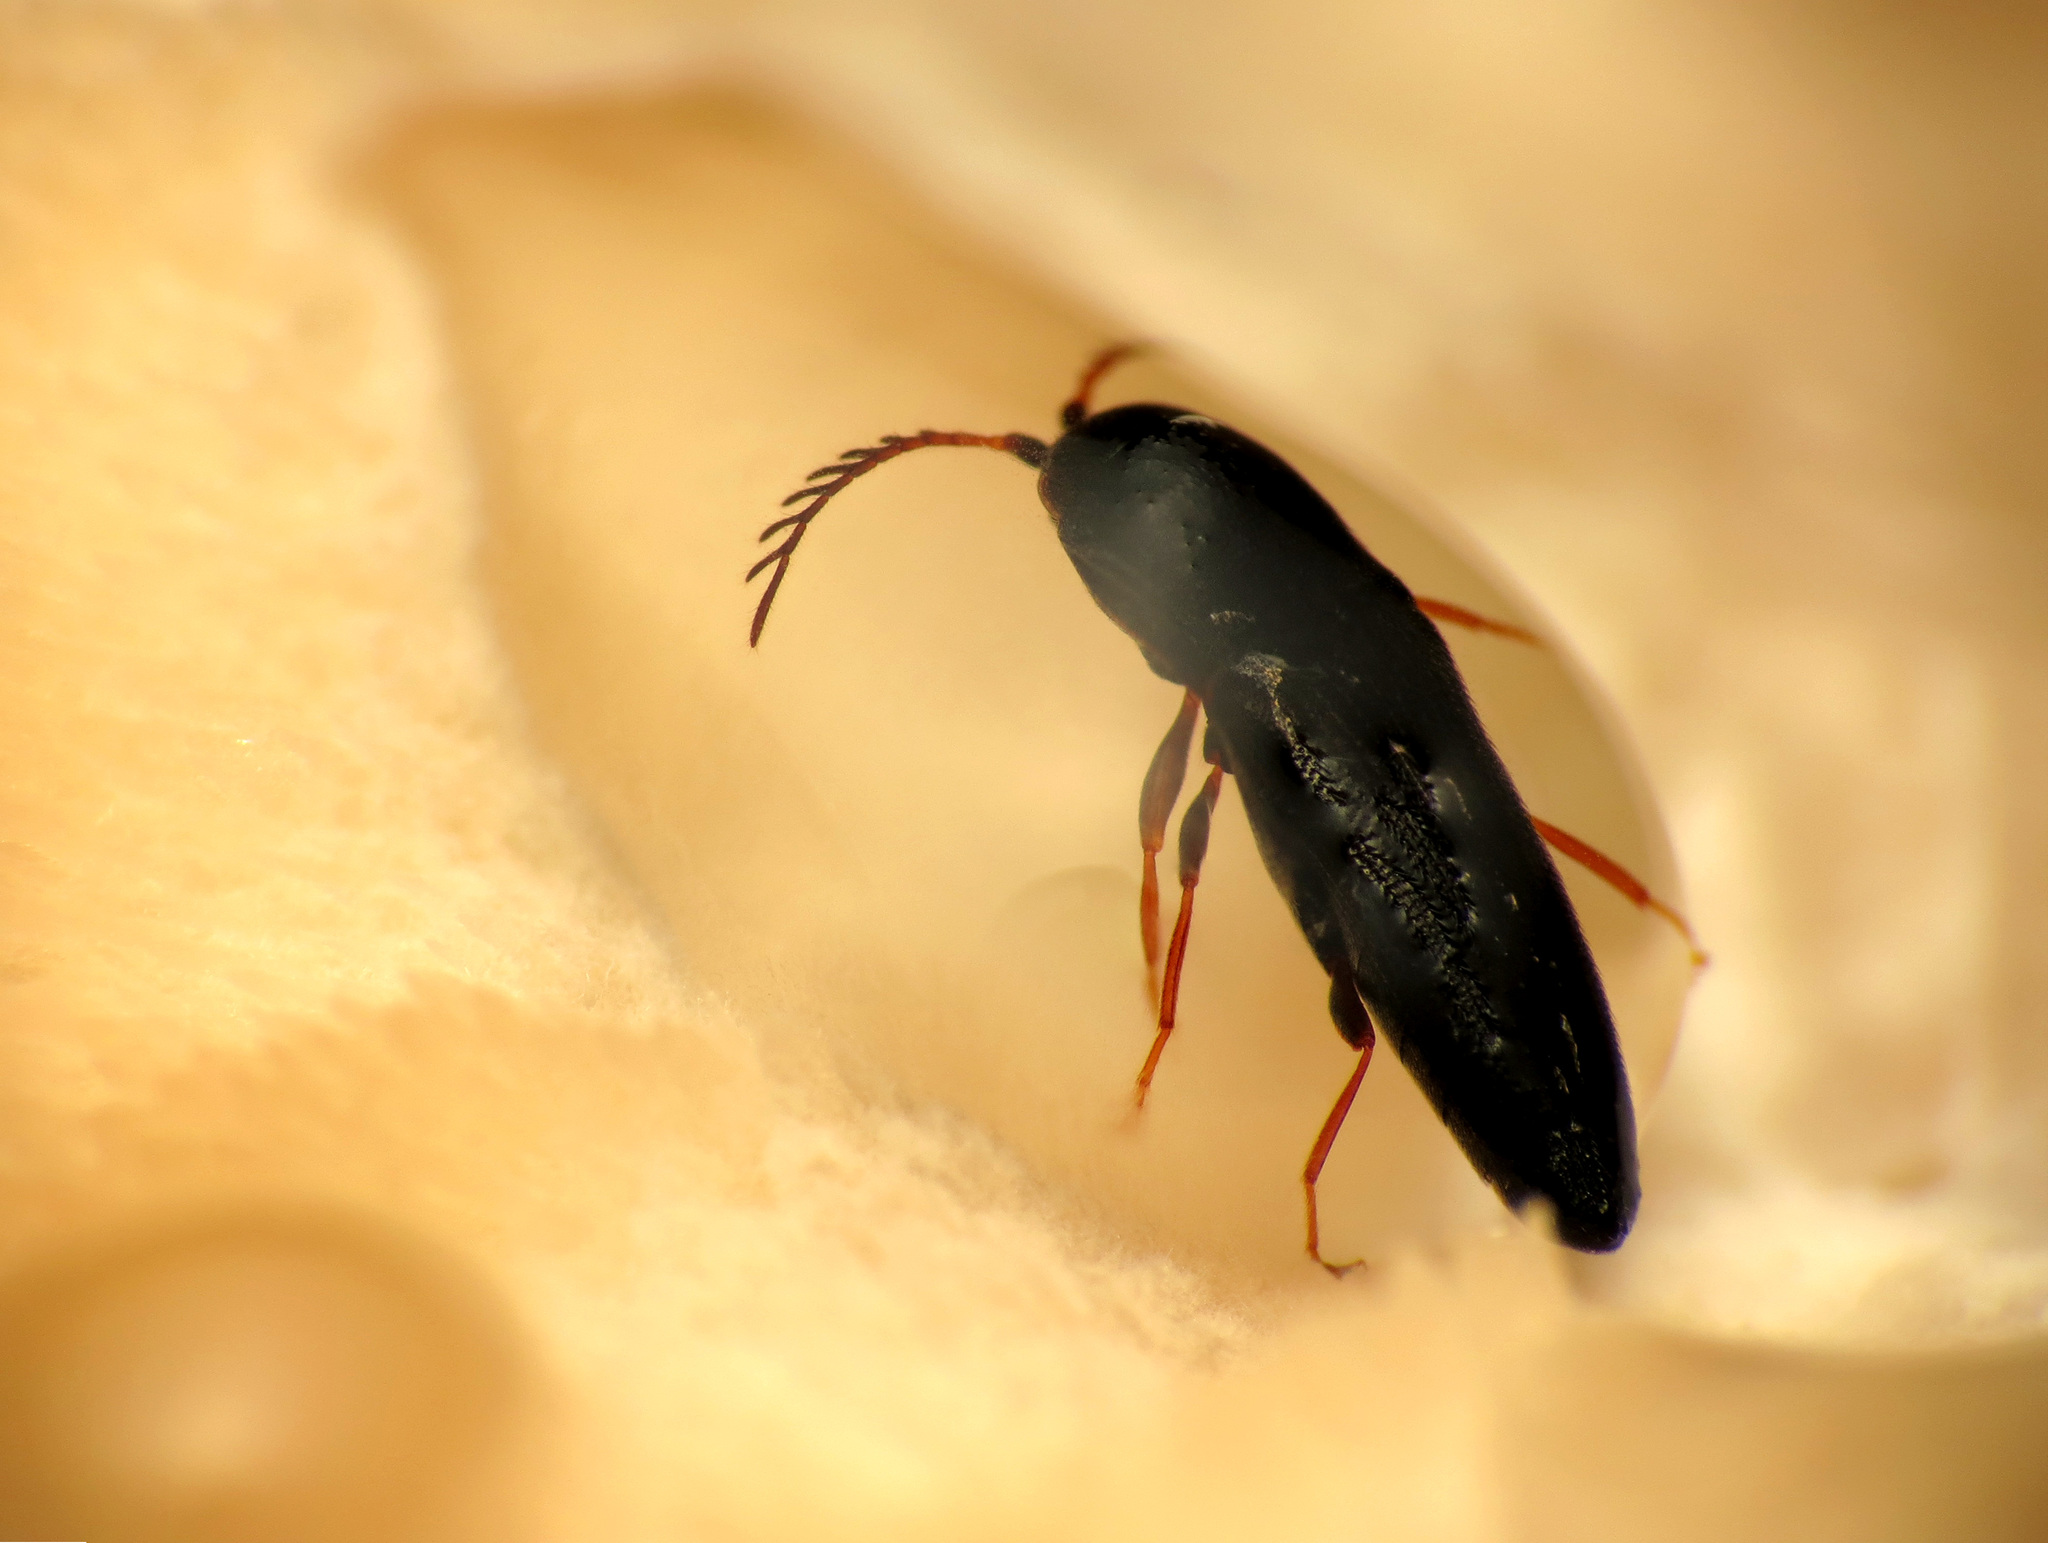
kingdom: Animalia
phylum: Arthropoda
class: Insecta
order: Coleoptera
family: Eucnemidae
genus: Deltometopus
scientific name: Deltometopus amoenicornis
